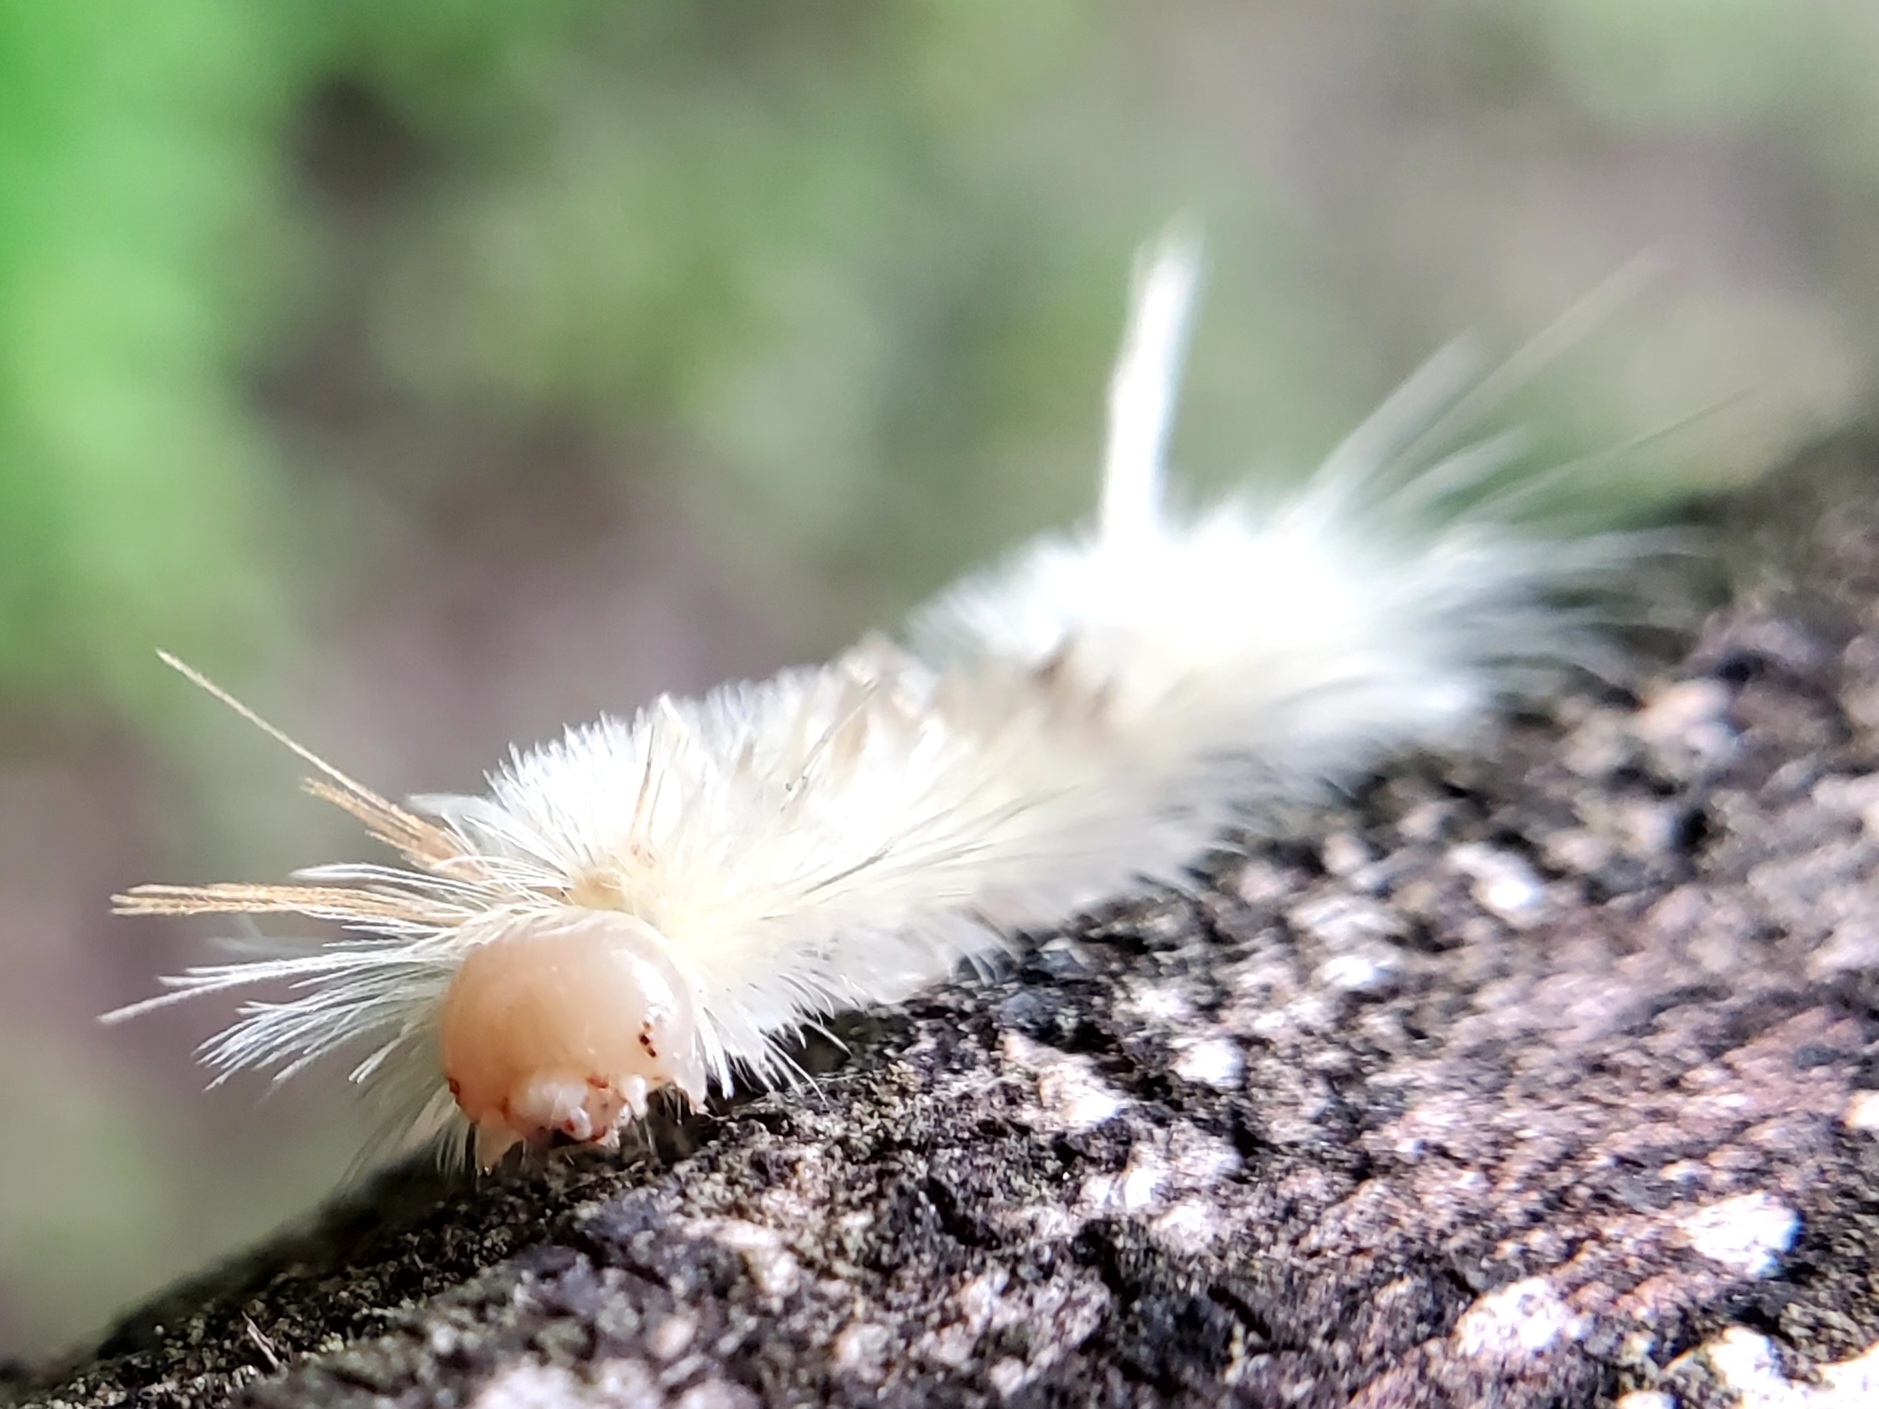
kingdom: Animalia
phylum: Arthropoda
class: Insecta
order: Lepidoptera
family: Erebidae
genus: Halysidota
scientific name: Halysidota harrisii
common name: Sycamore tussock moth
